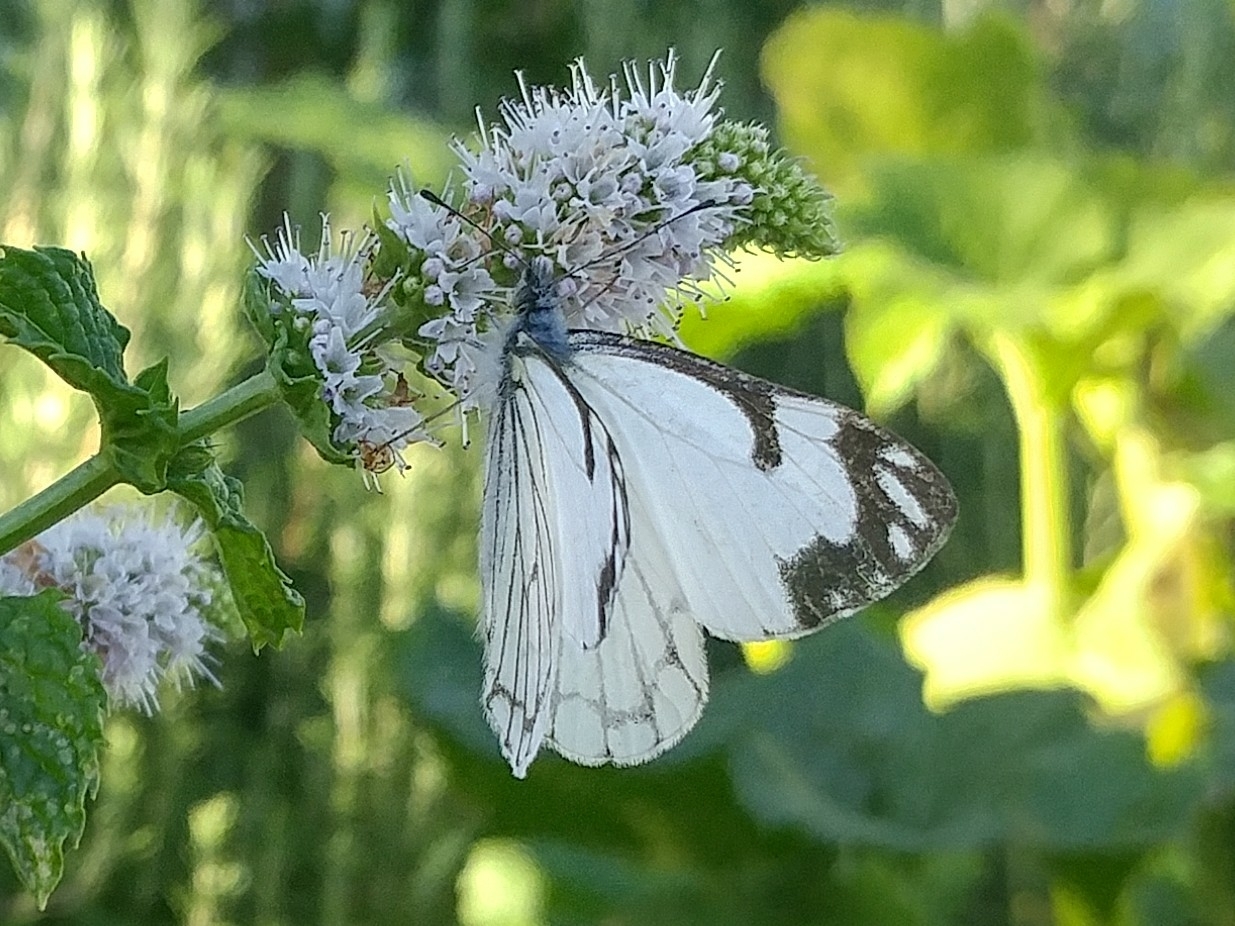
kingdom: Animalia
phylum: Arthropoda
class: Insecta
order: Lepidoptera
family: Pieridae
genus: Neophasia
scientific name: Neophasia menapia
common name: Pine white
